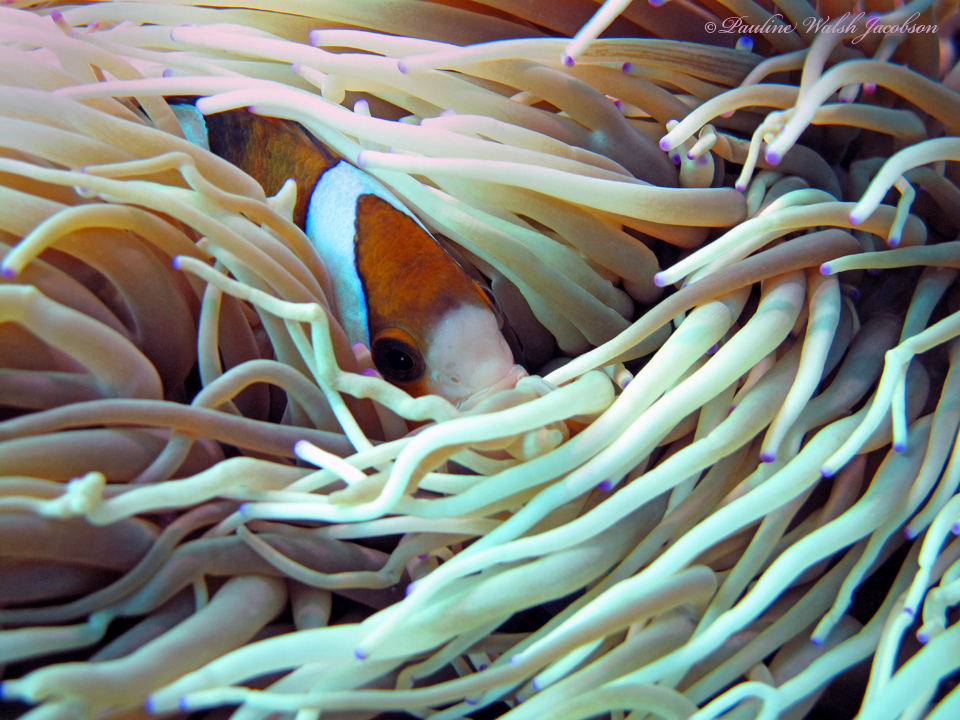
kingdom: Animalia
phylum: Chordata
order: Perciformes
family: Pomacentridae
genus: Amphiprion
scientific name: Amphiprion clarkii
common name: Clark's anemonefish
